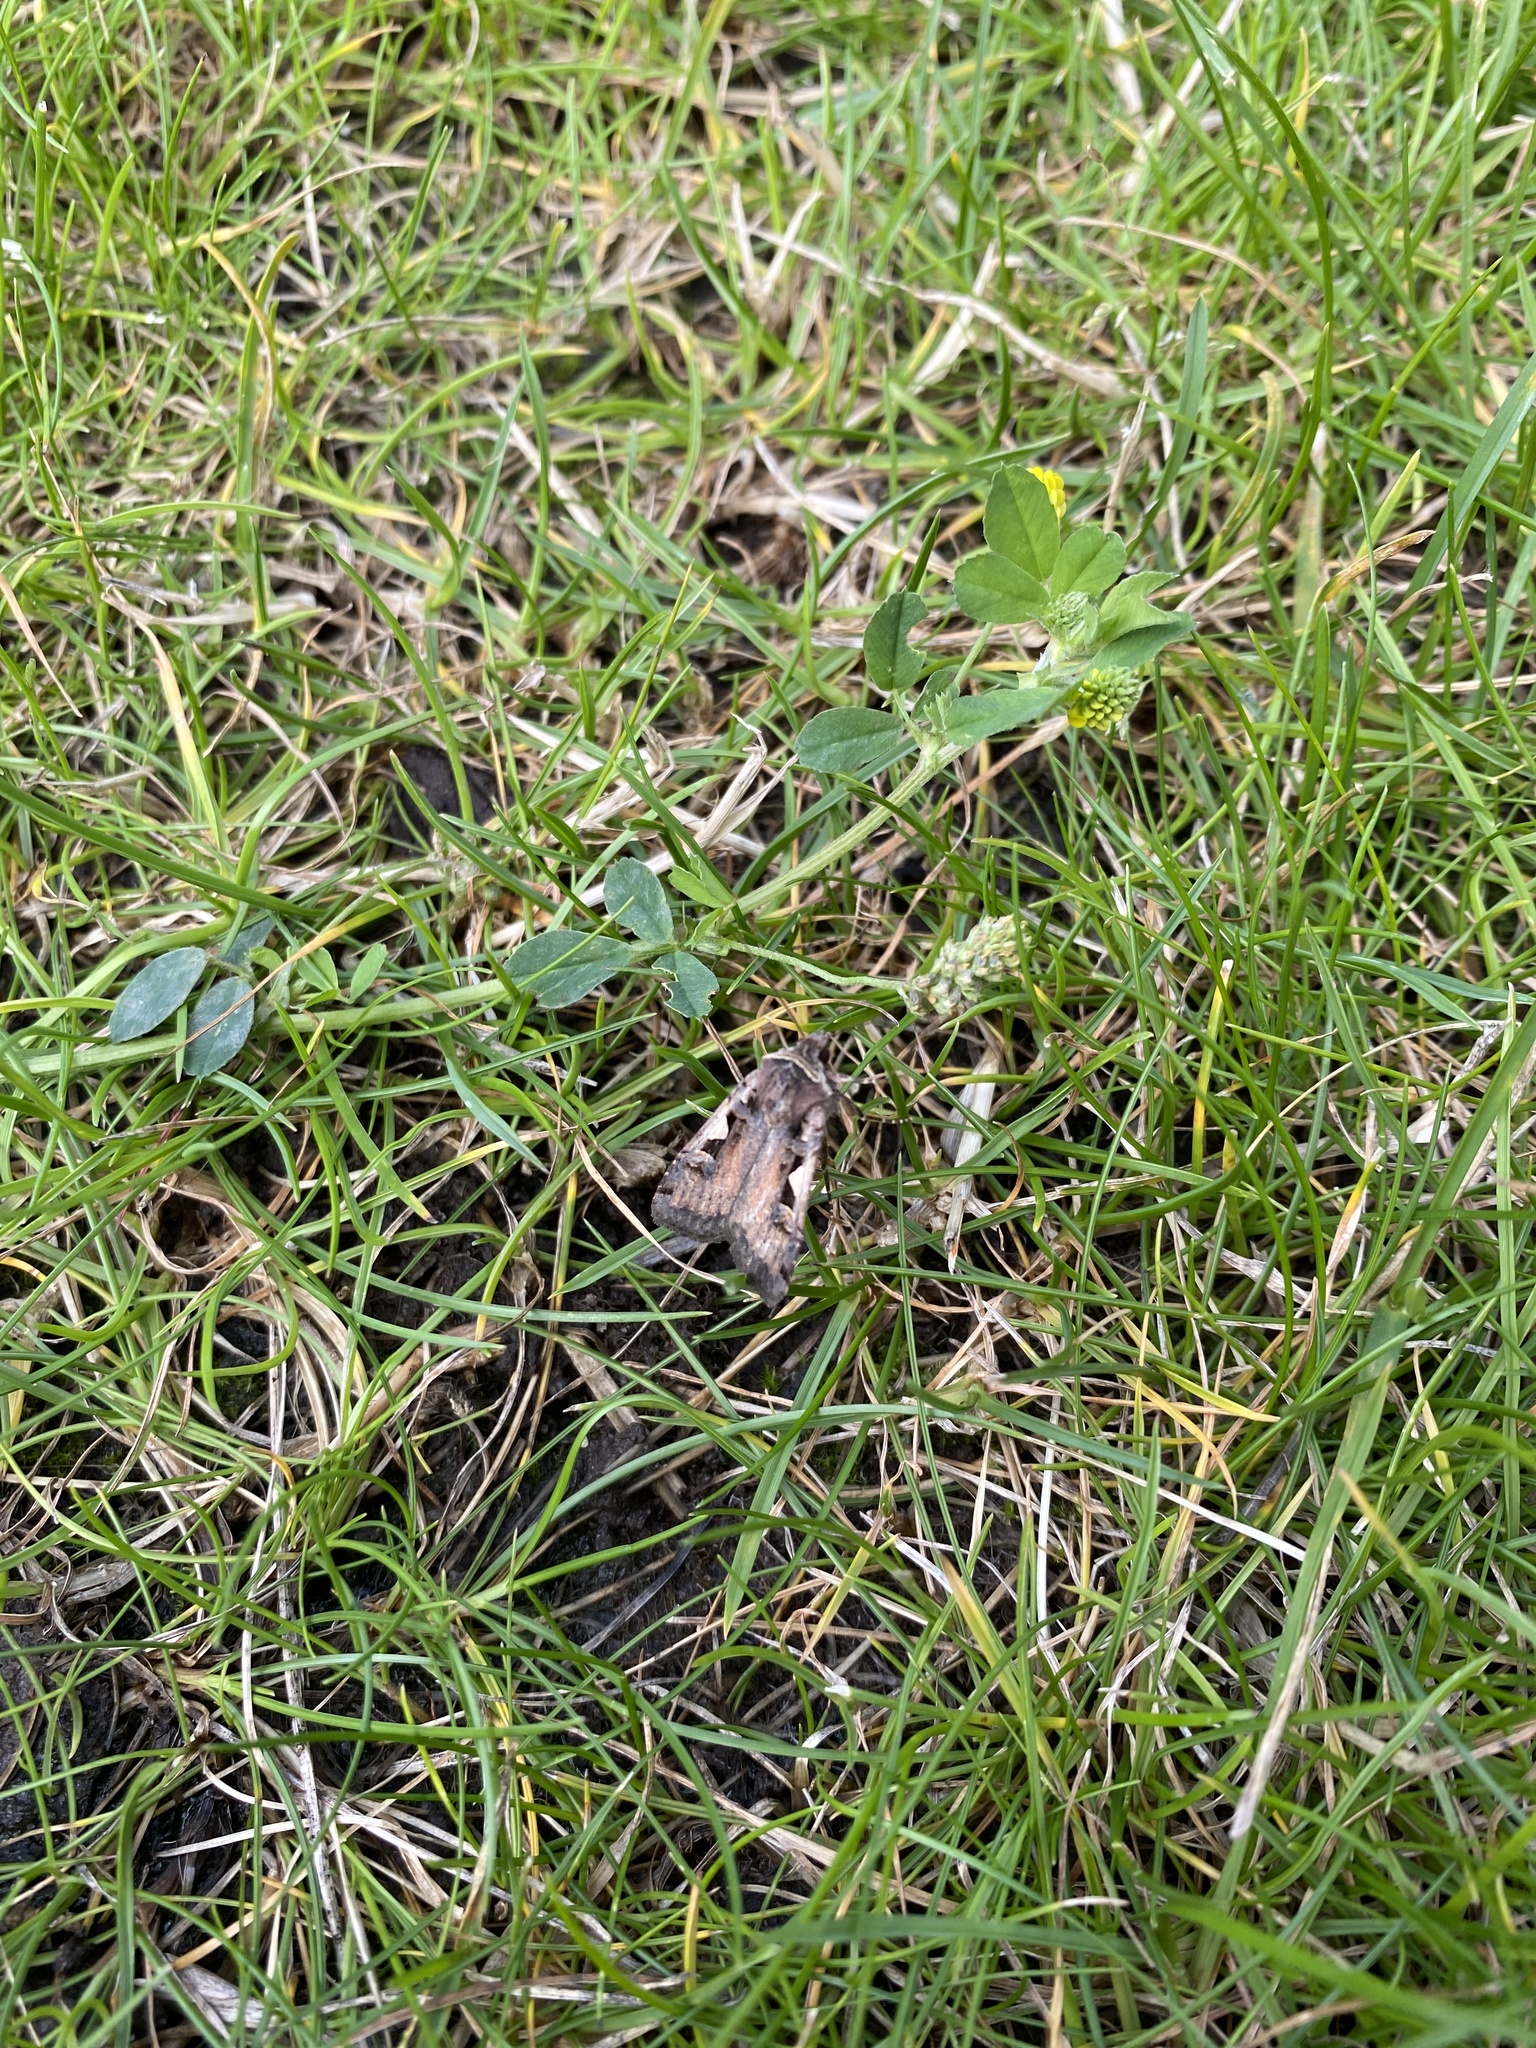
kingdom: Animalia
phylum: Arthropoda
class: Insecta
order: Lepidoptera
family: Noctuidae
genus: Xestia
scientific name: Xestia c-nigrum
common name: Setaceous hebrew character
